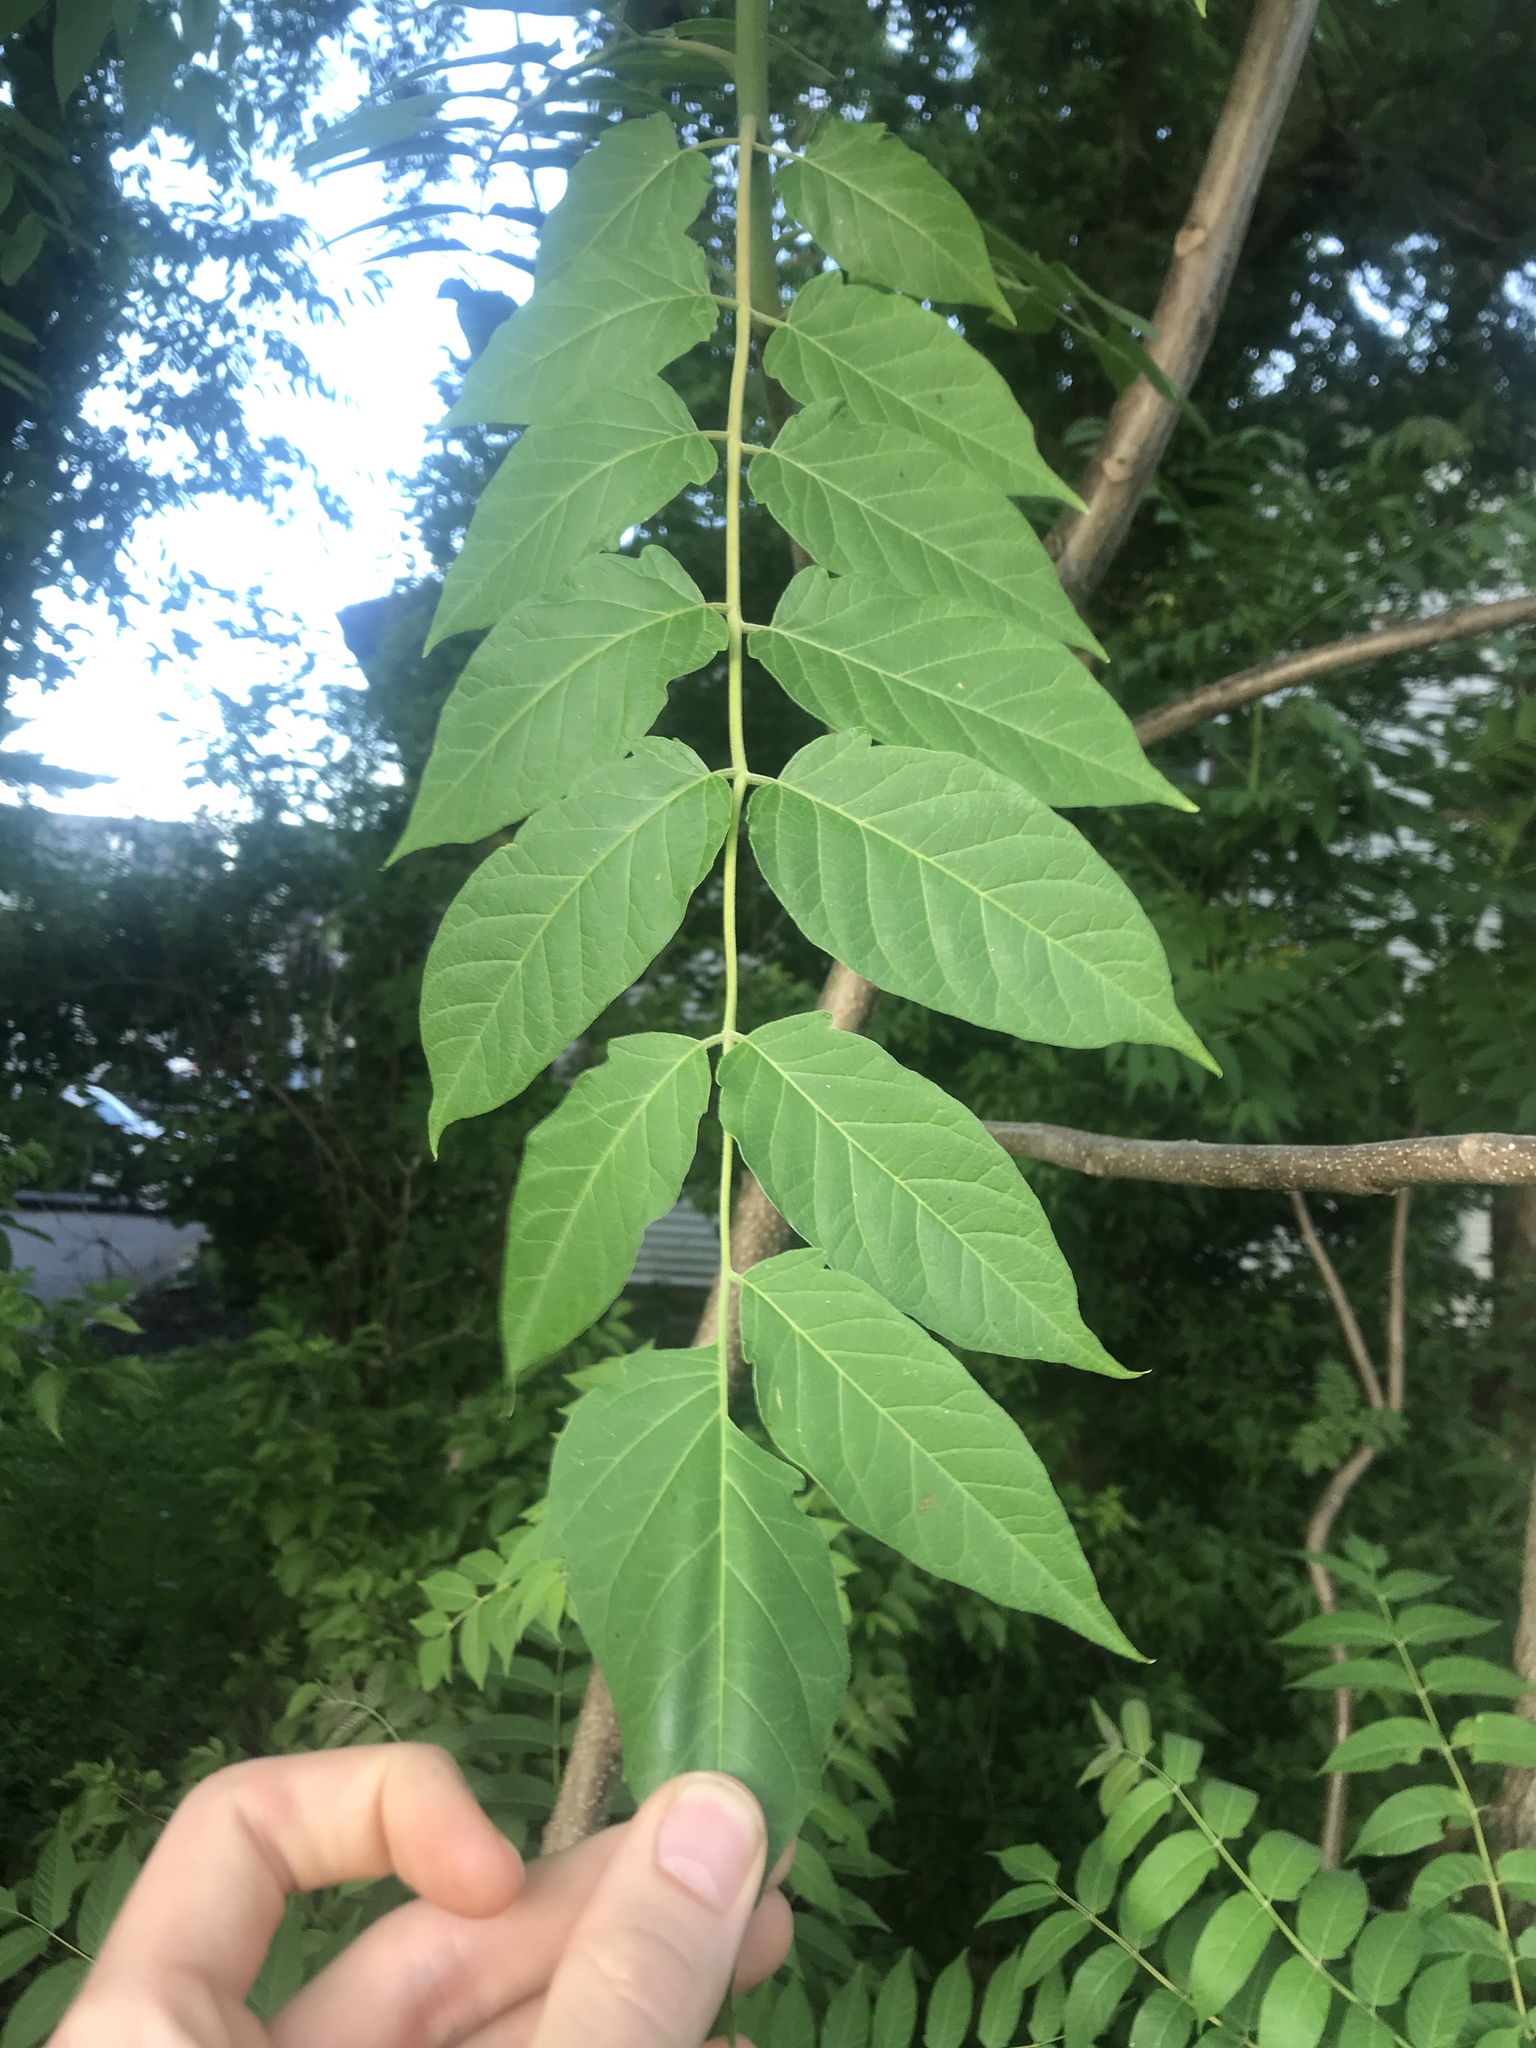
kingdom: Plantae
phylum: Tracheophyta
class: Magnoliopsida
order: Sapindales
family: Simaroubaceae
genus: Ailanthus
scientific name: Ailanthus altissima
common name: Tree-of-heaven
